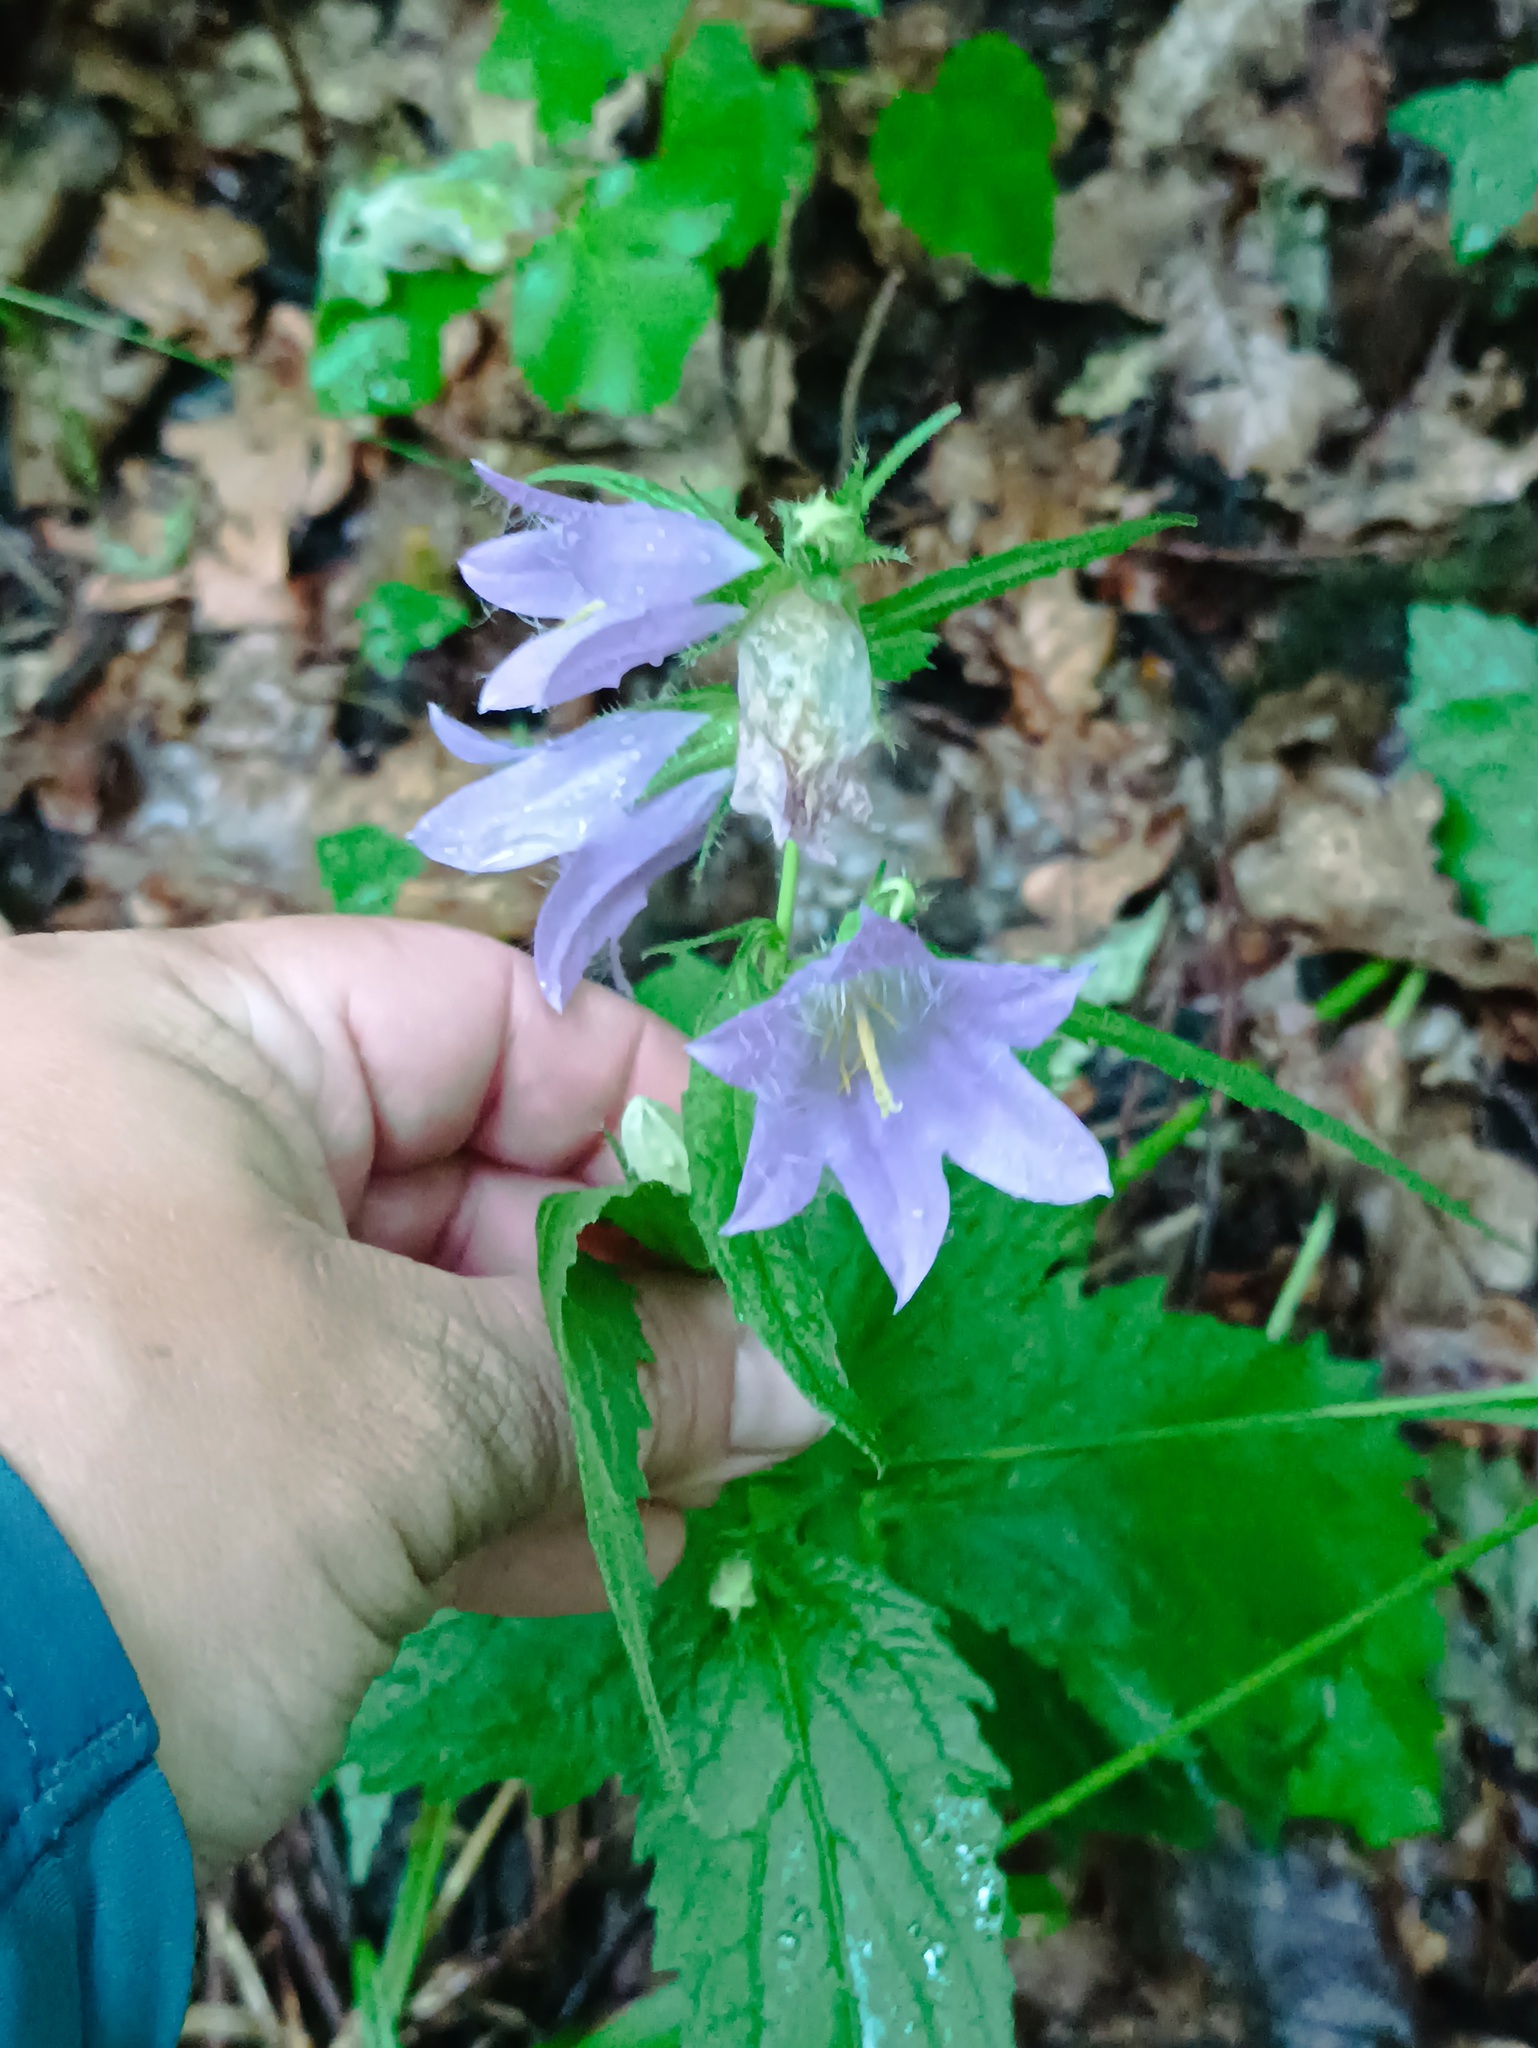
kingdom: Plantae
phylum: Tracheophyta
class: Magnoliopsida
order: Asterales
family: Campanulaceae
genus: Campanula
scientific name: Campanula trachelium
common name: Nettle-leaved bellflower
